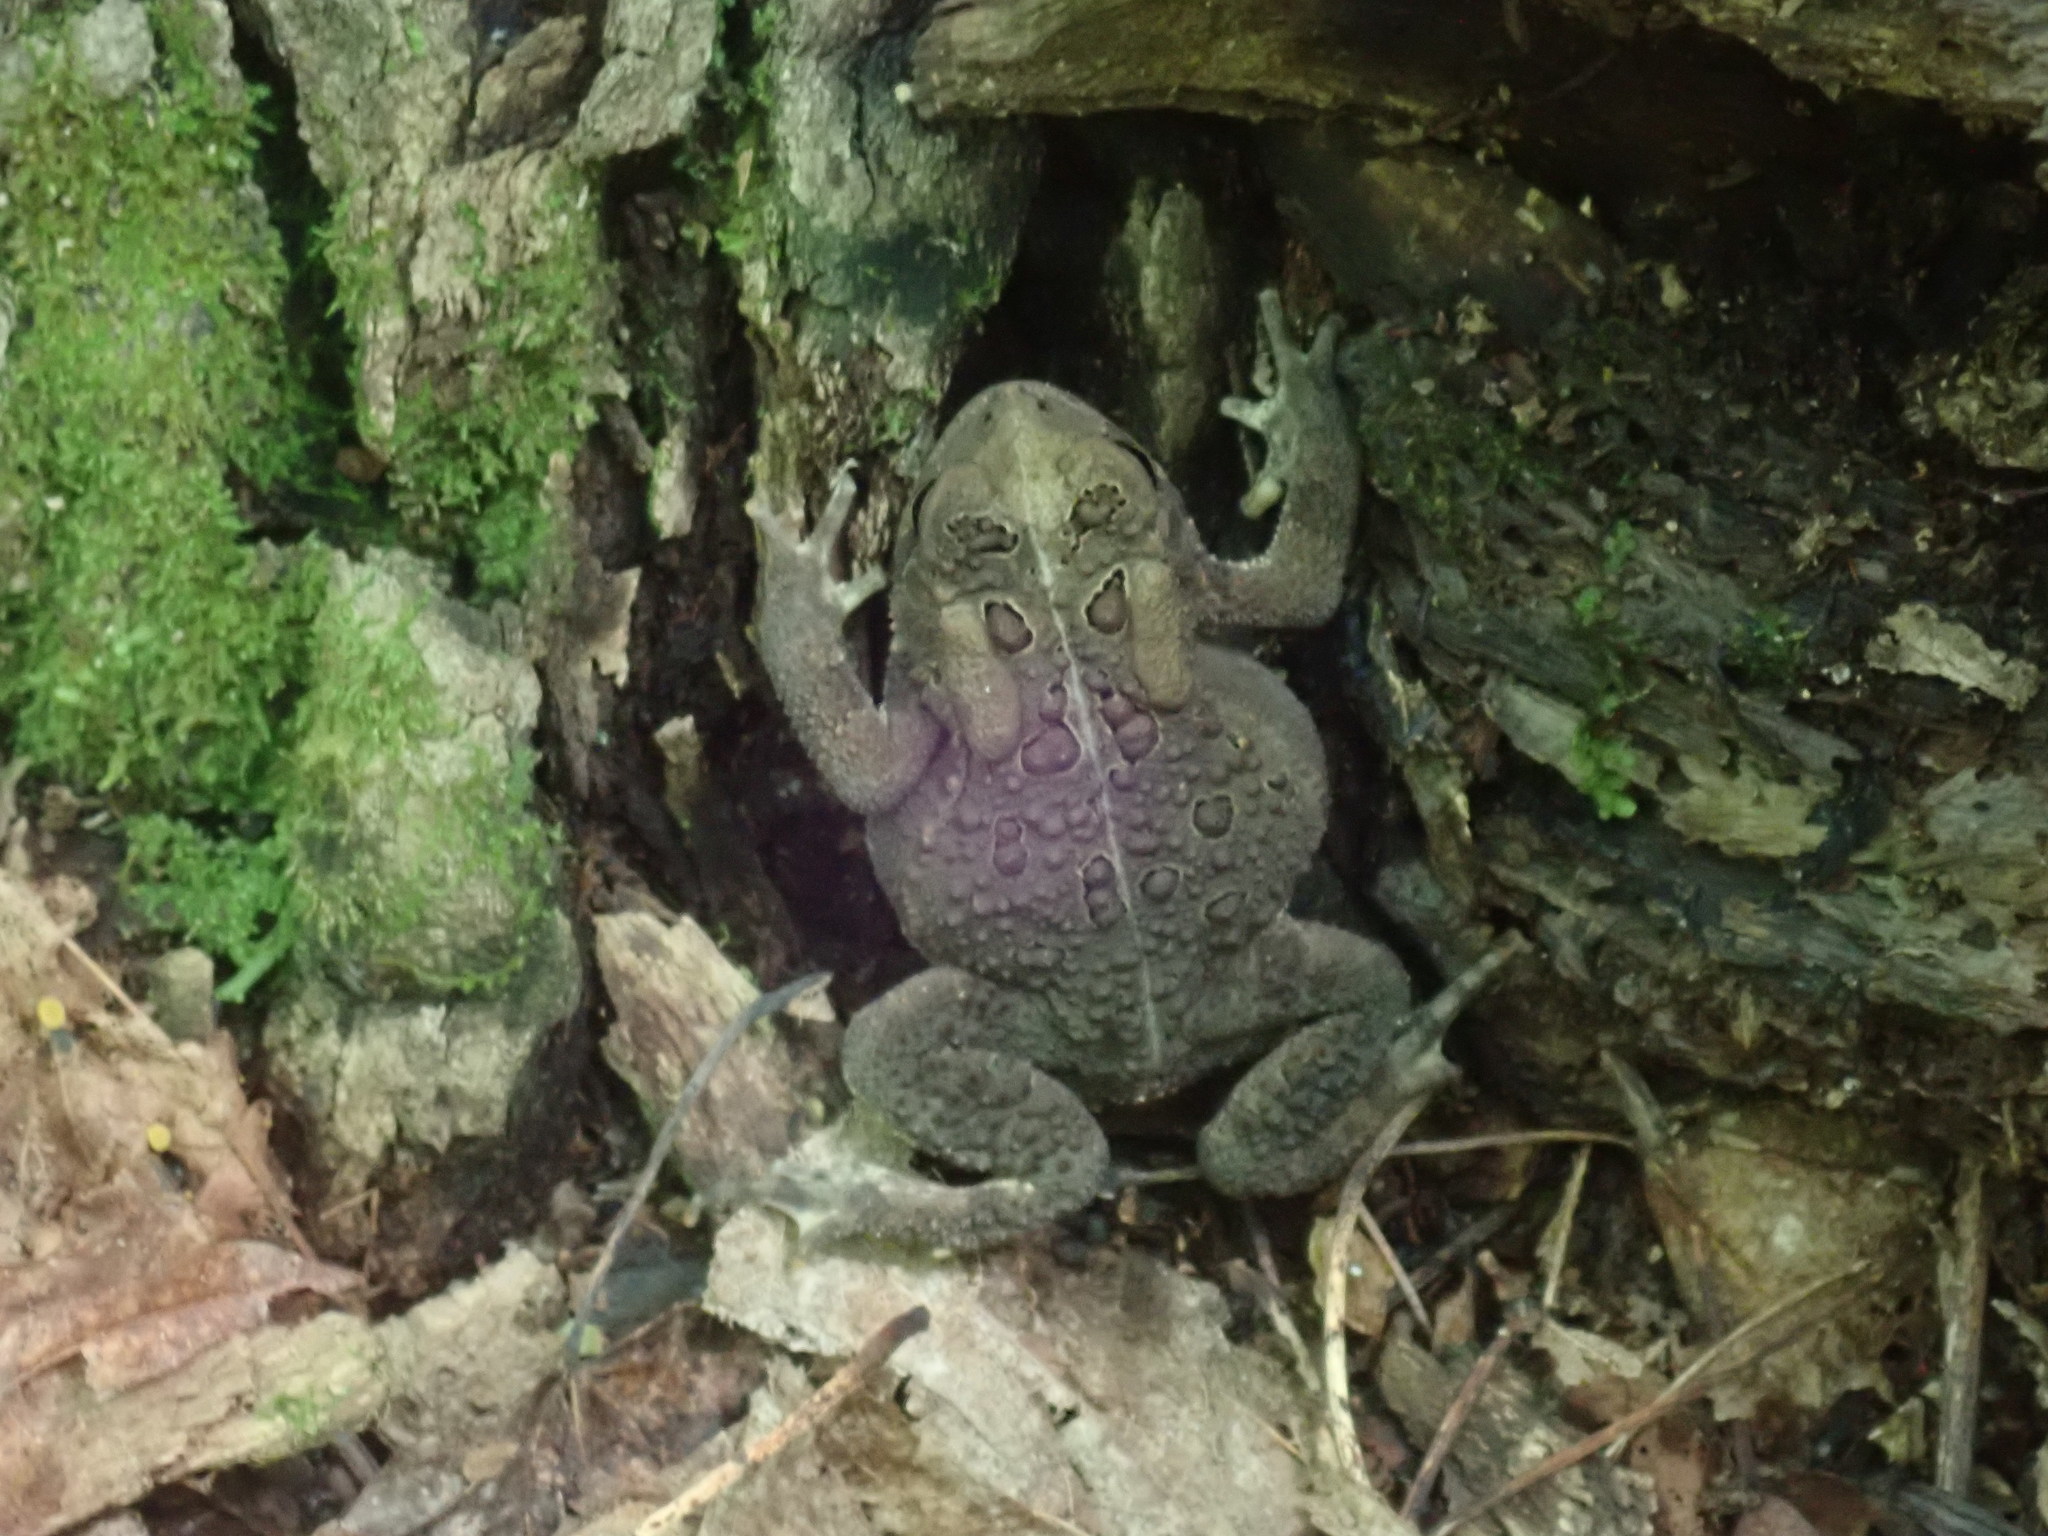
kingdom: Animalia
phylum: Chordata
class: Amphibia
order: Anura
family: Bufonidae
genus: Anaxyrus
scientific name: Anaxyrus americanus
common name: American toad
